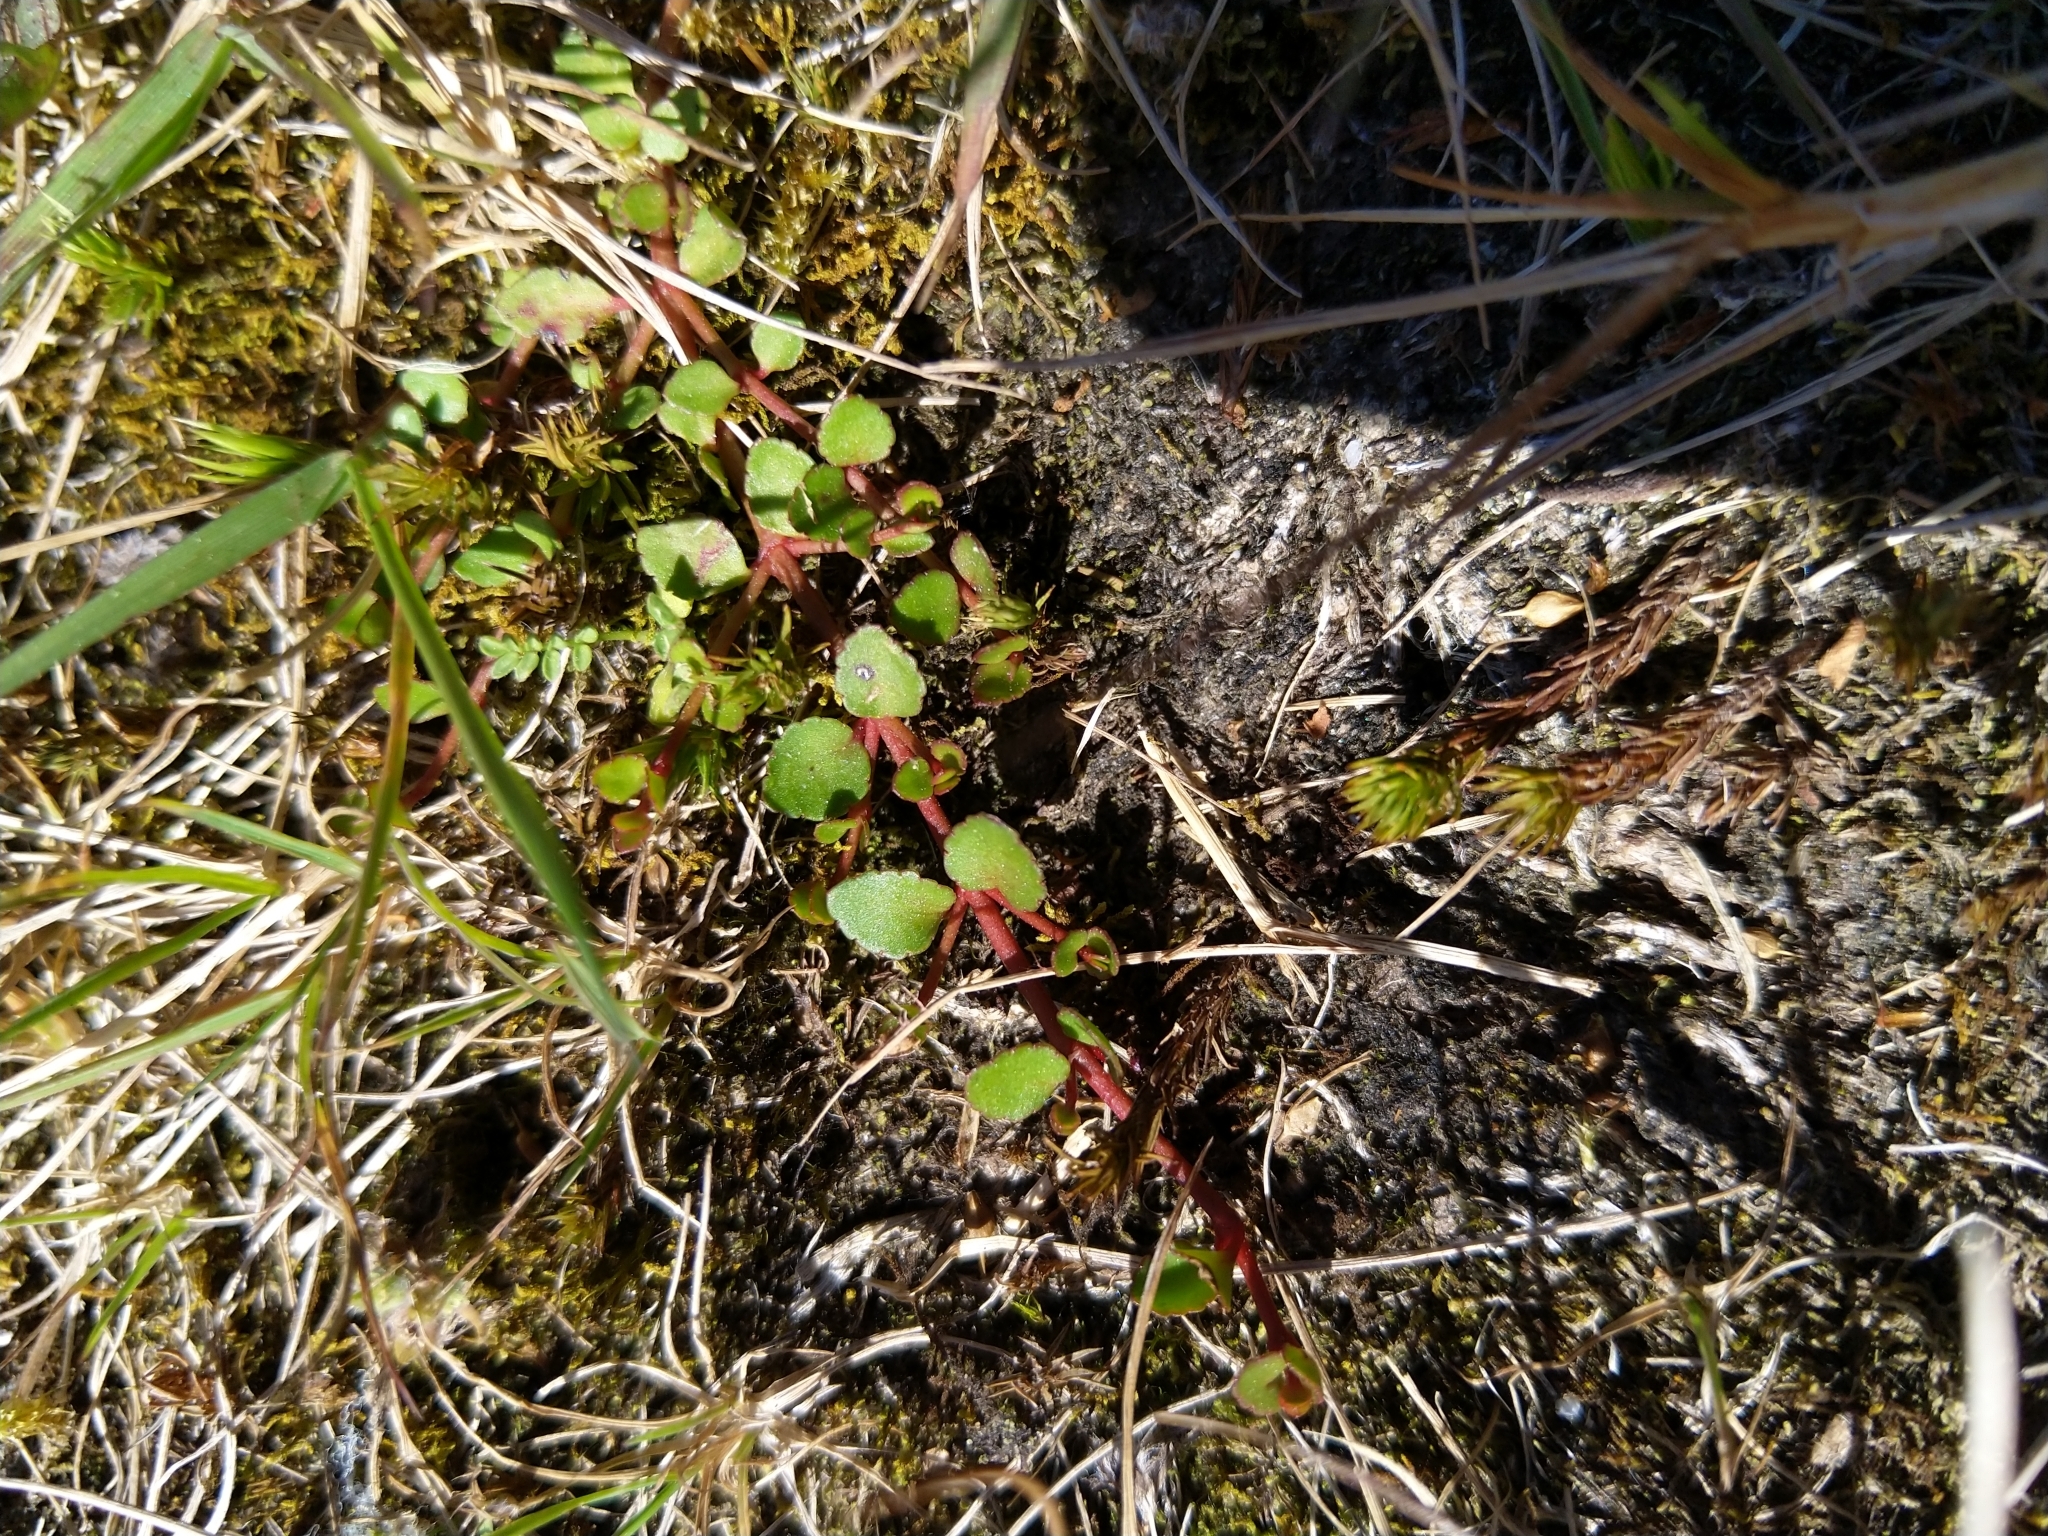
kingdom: Plantae
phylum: Tracheophyta
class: Magnoliopsida
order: Saxifragales
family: Haloragaceae
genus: Gonocarpus
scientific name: Gonocarpus micranthus
